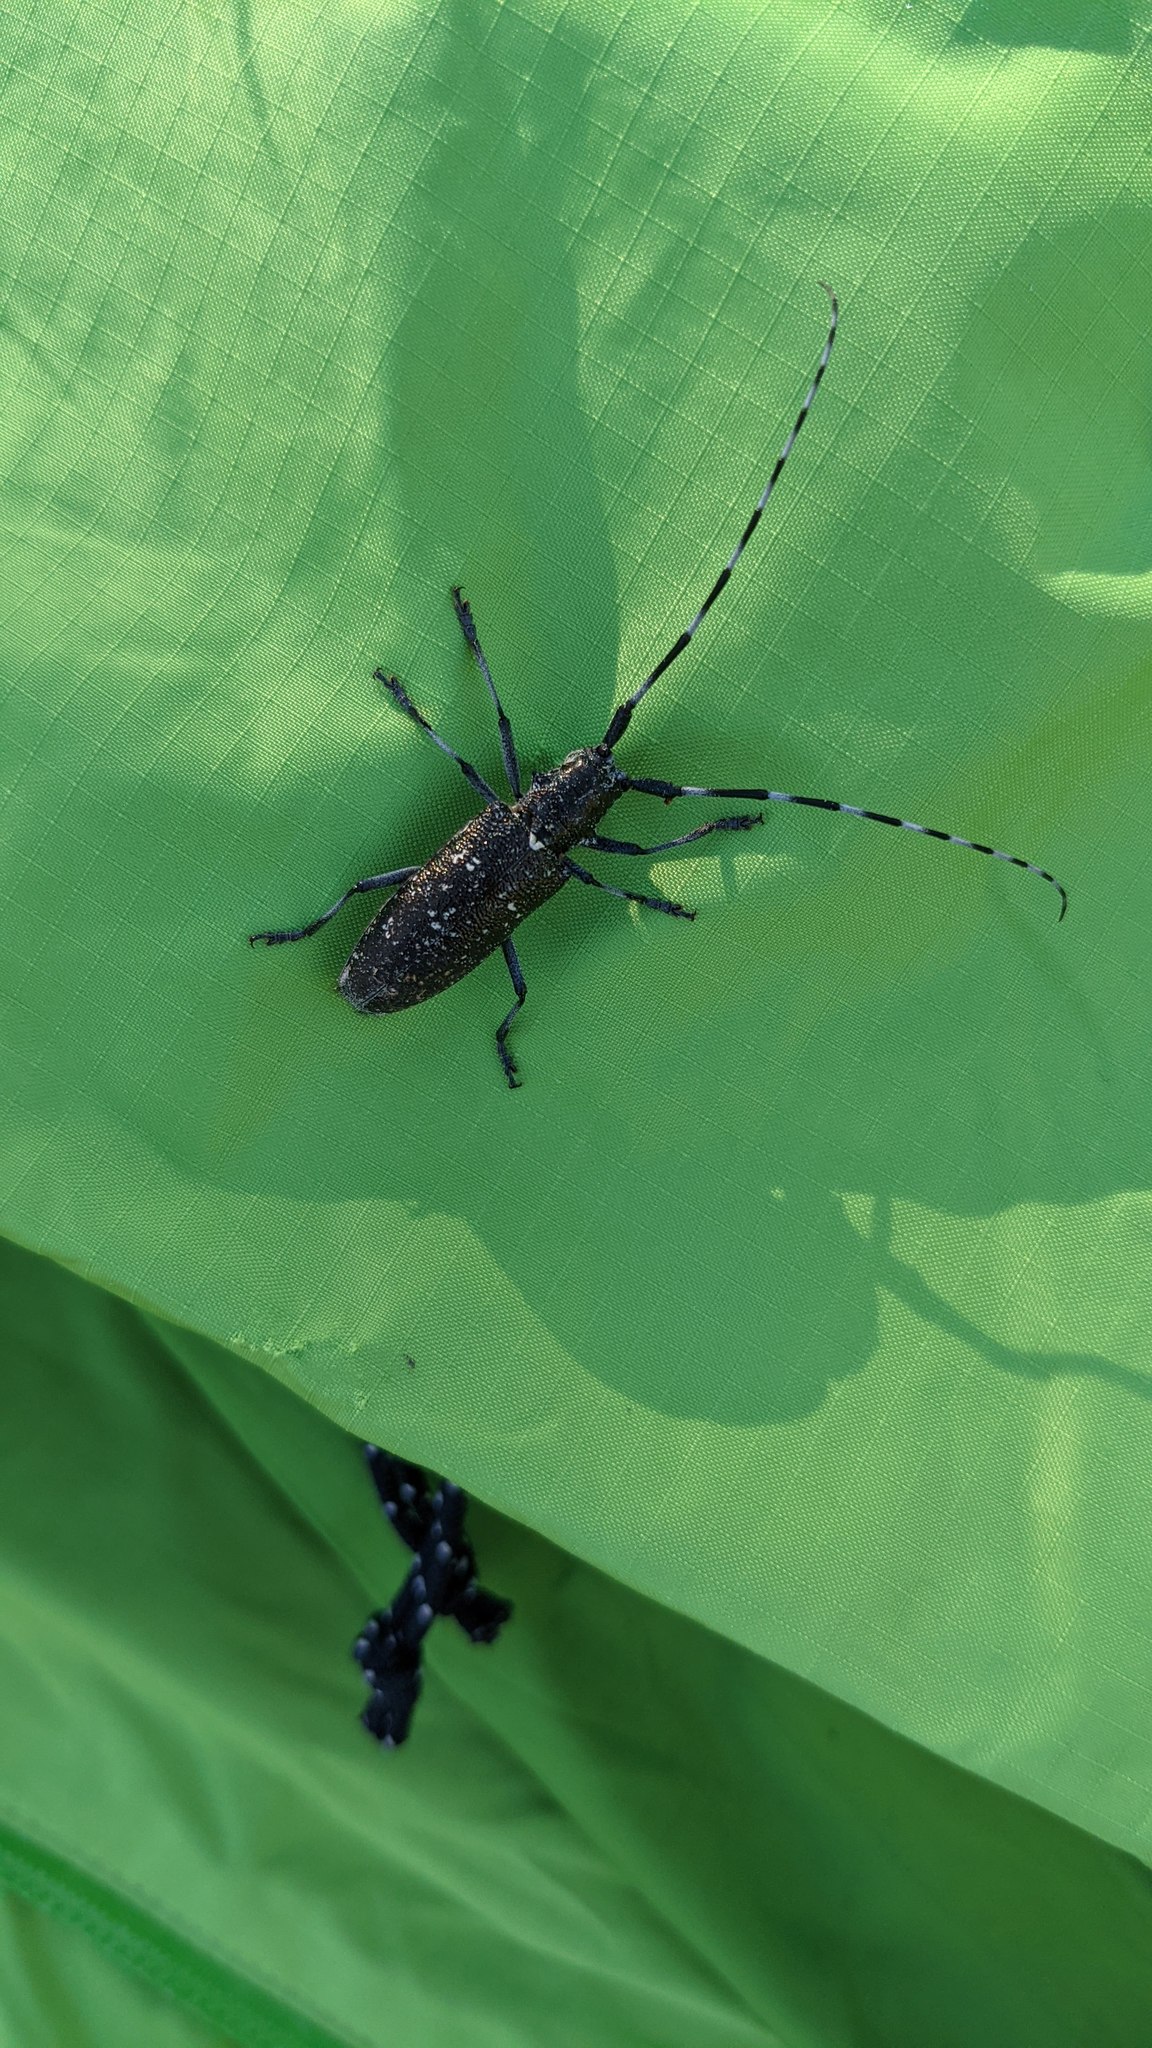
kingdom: Animalia
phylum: Arthropoda
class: Insecta
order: Coleoptera
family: Cerambycidae
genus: Monochamus
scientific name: Monochamus scutellatus
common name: White-spotted sawyer beetle
